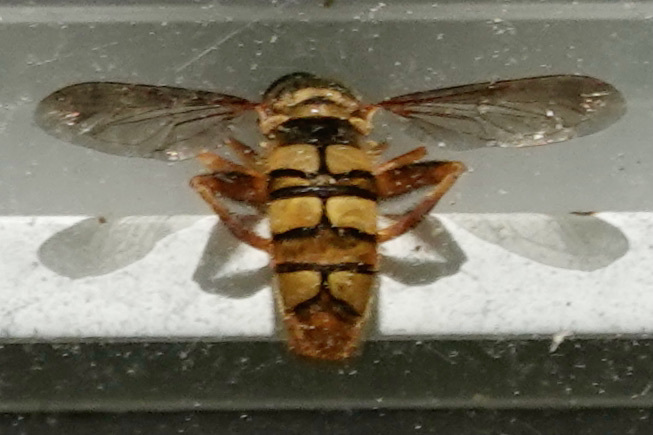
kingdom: Animalia
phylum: Arthropoda
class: Insecta
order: Diptera
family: Syrphidae
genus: Milesia
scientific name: Milesia virginiensis
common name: Virginia giant
